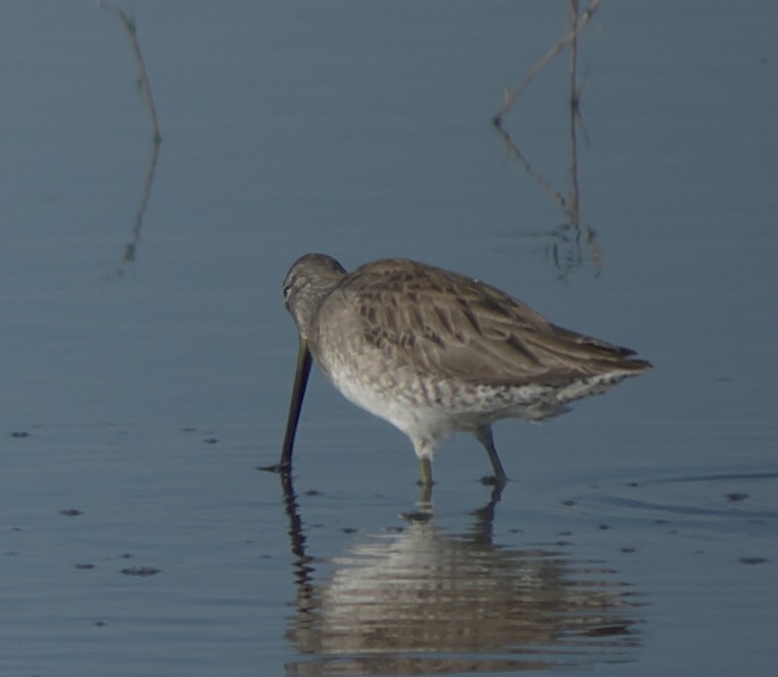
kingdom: Animalia
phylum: Chordata
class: Aves
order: Charadriiformes
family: Scolopacidae
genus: Limnodromus
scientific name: Limnodromus scolopaceus
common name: Long-billed dowitcher
